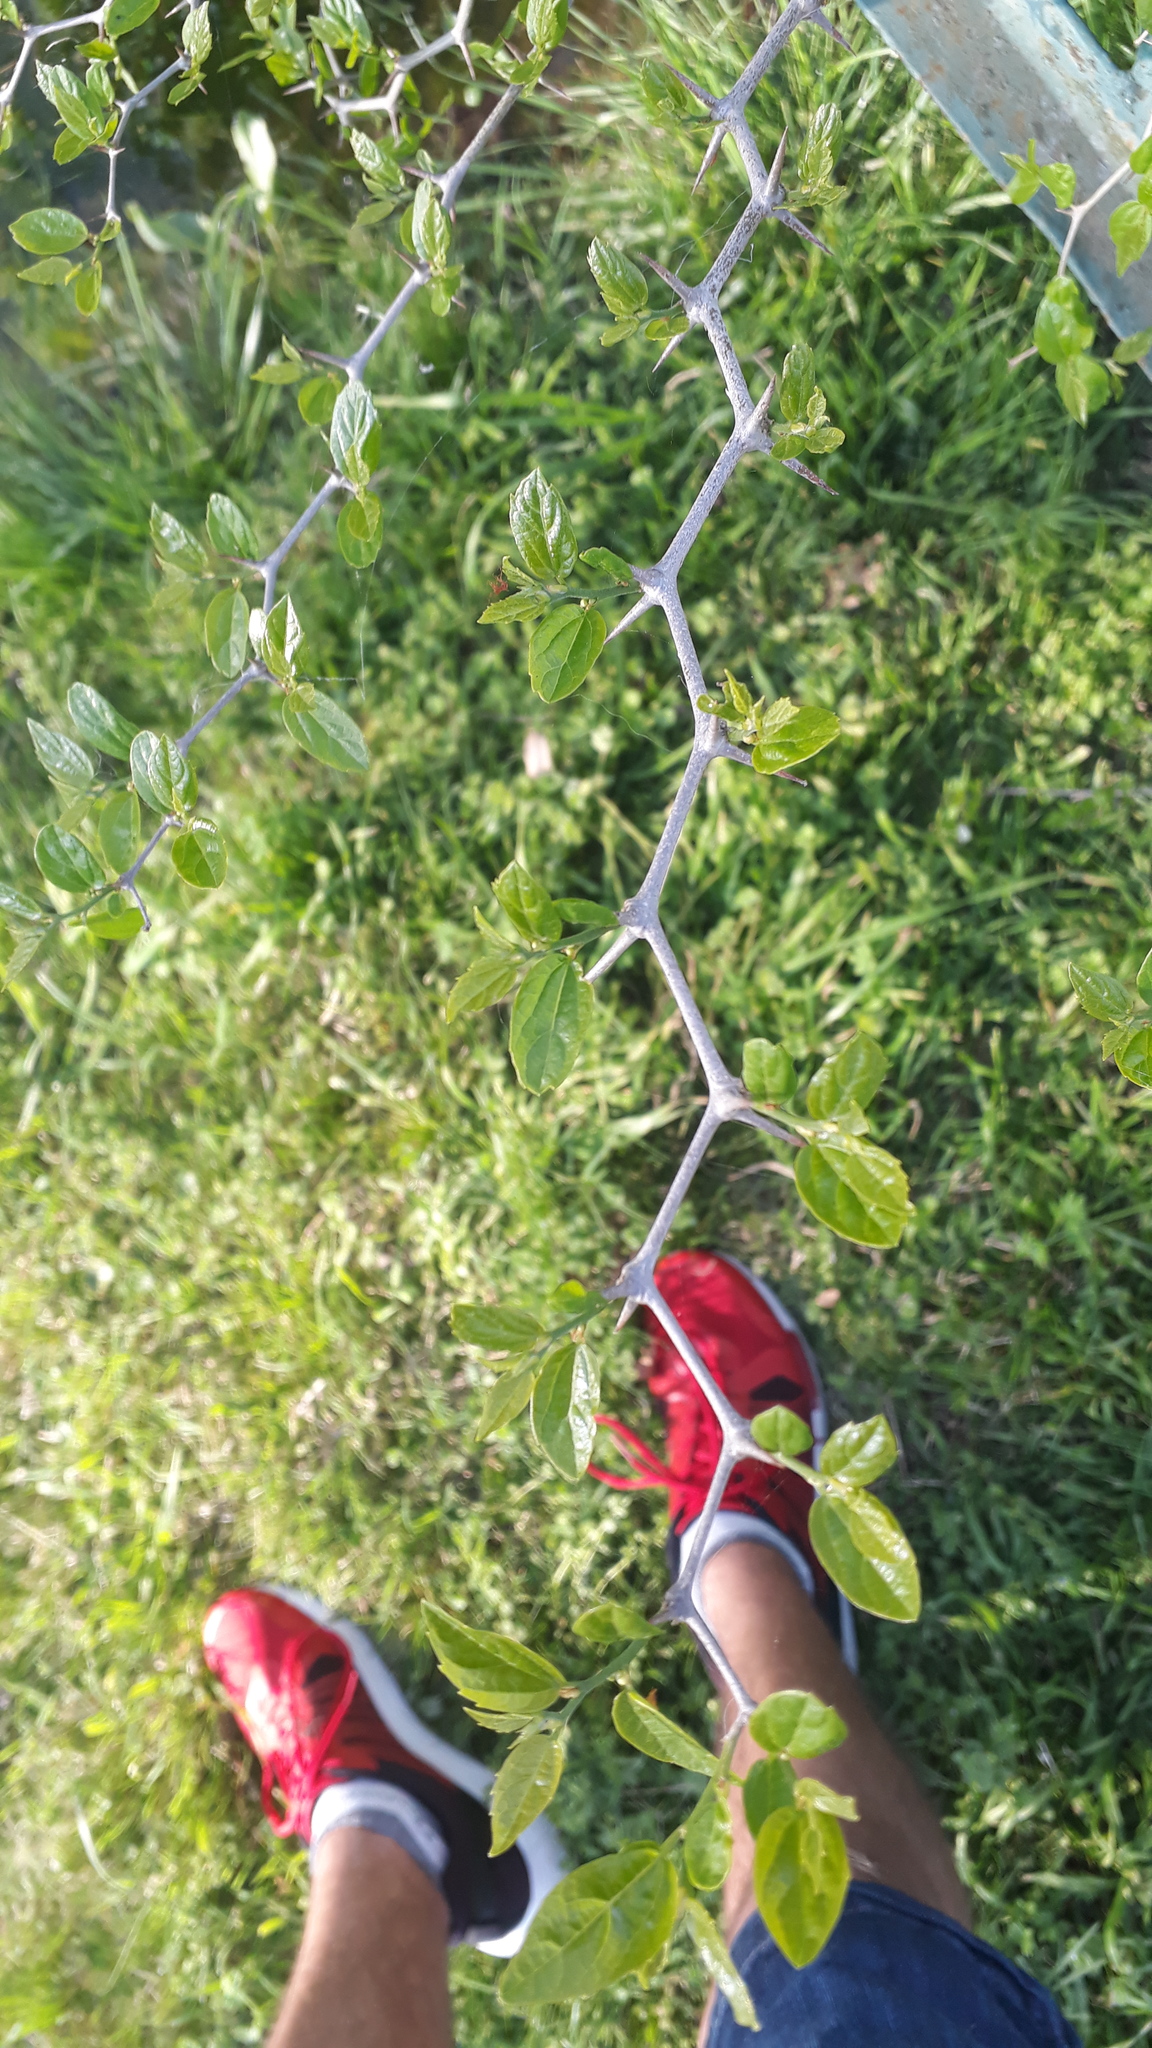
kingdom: Plantae
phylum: Tracheophyta
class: Magnoliopsida
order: Rosales
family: Cannabaceae
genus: Celtis
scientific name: Celtis tala
